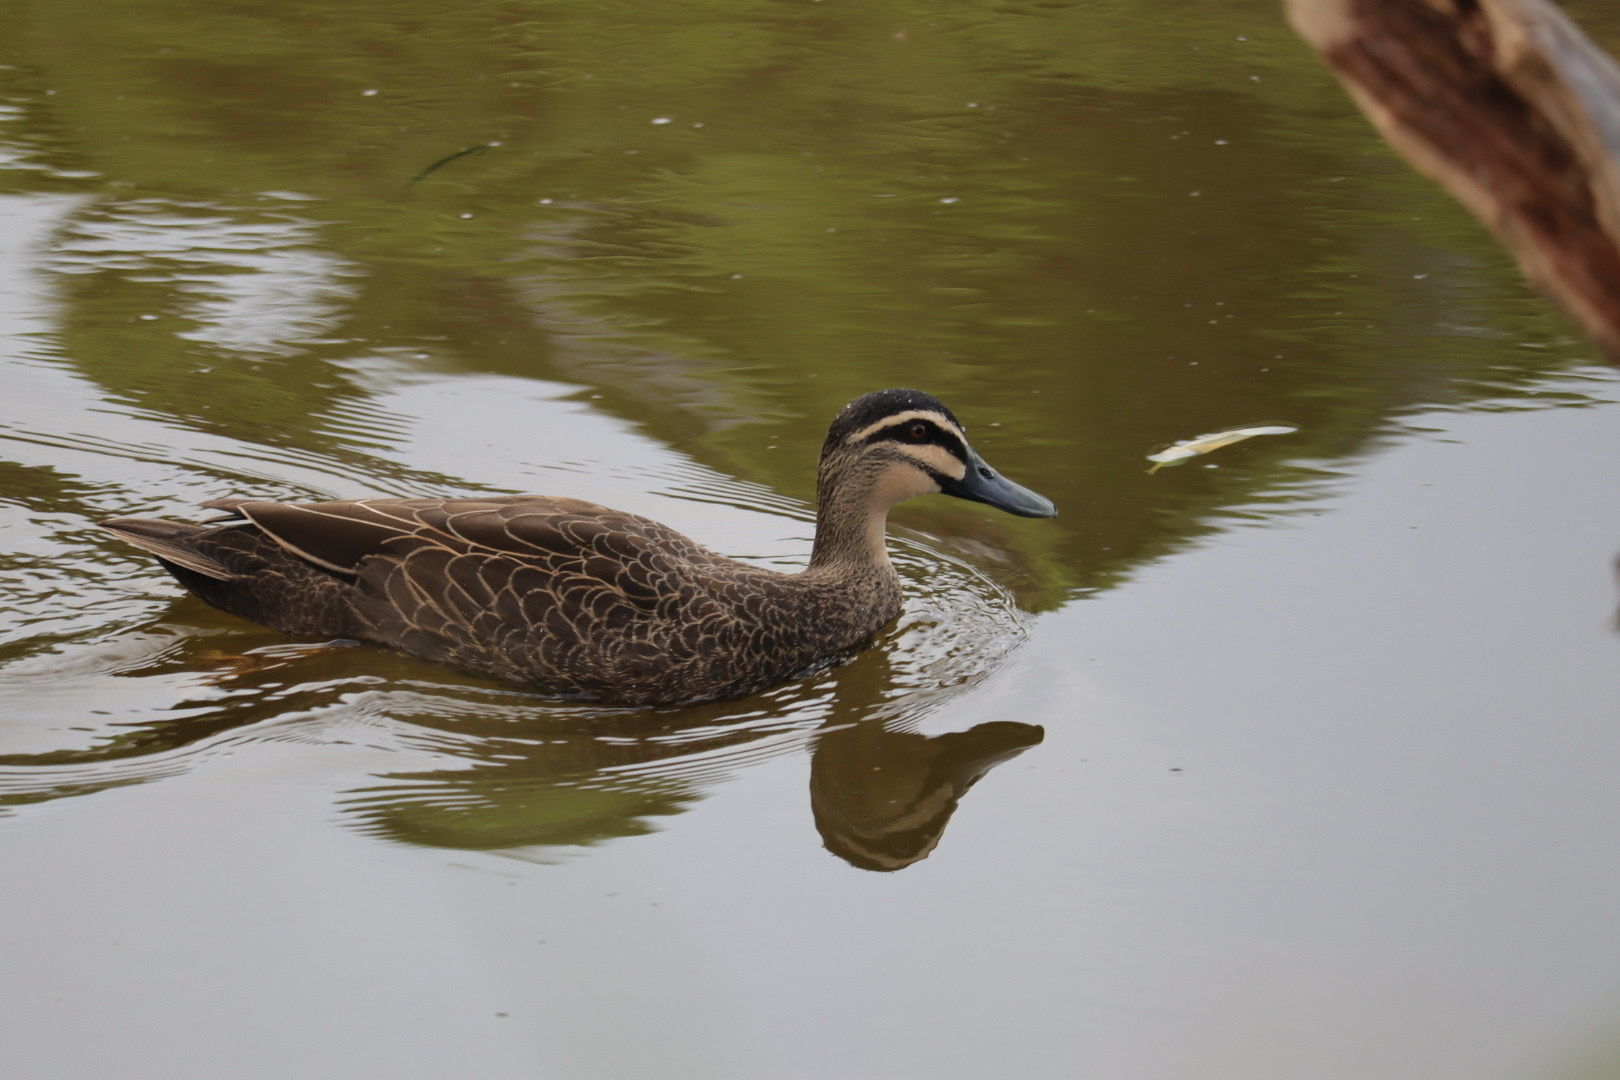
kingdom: Animalia
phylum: Chordata
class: Aves
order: Anseriformes
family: Anatidae
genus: Anas
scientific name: Anas superciliosa
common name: Pacific black duck
